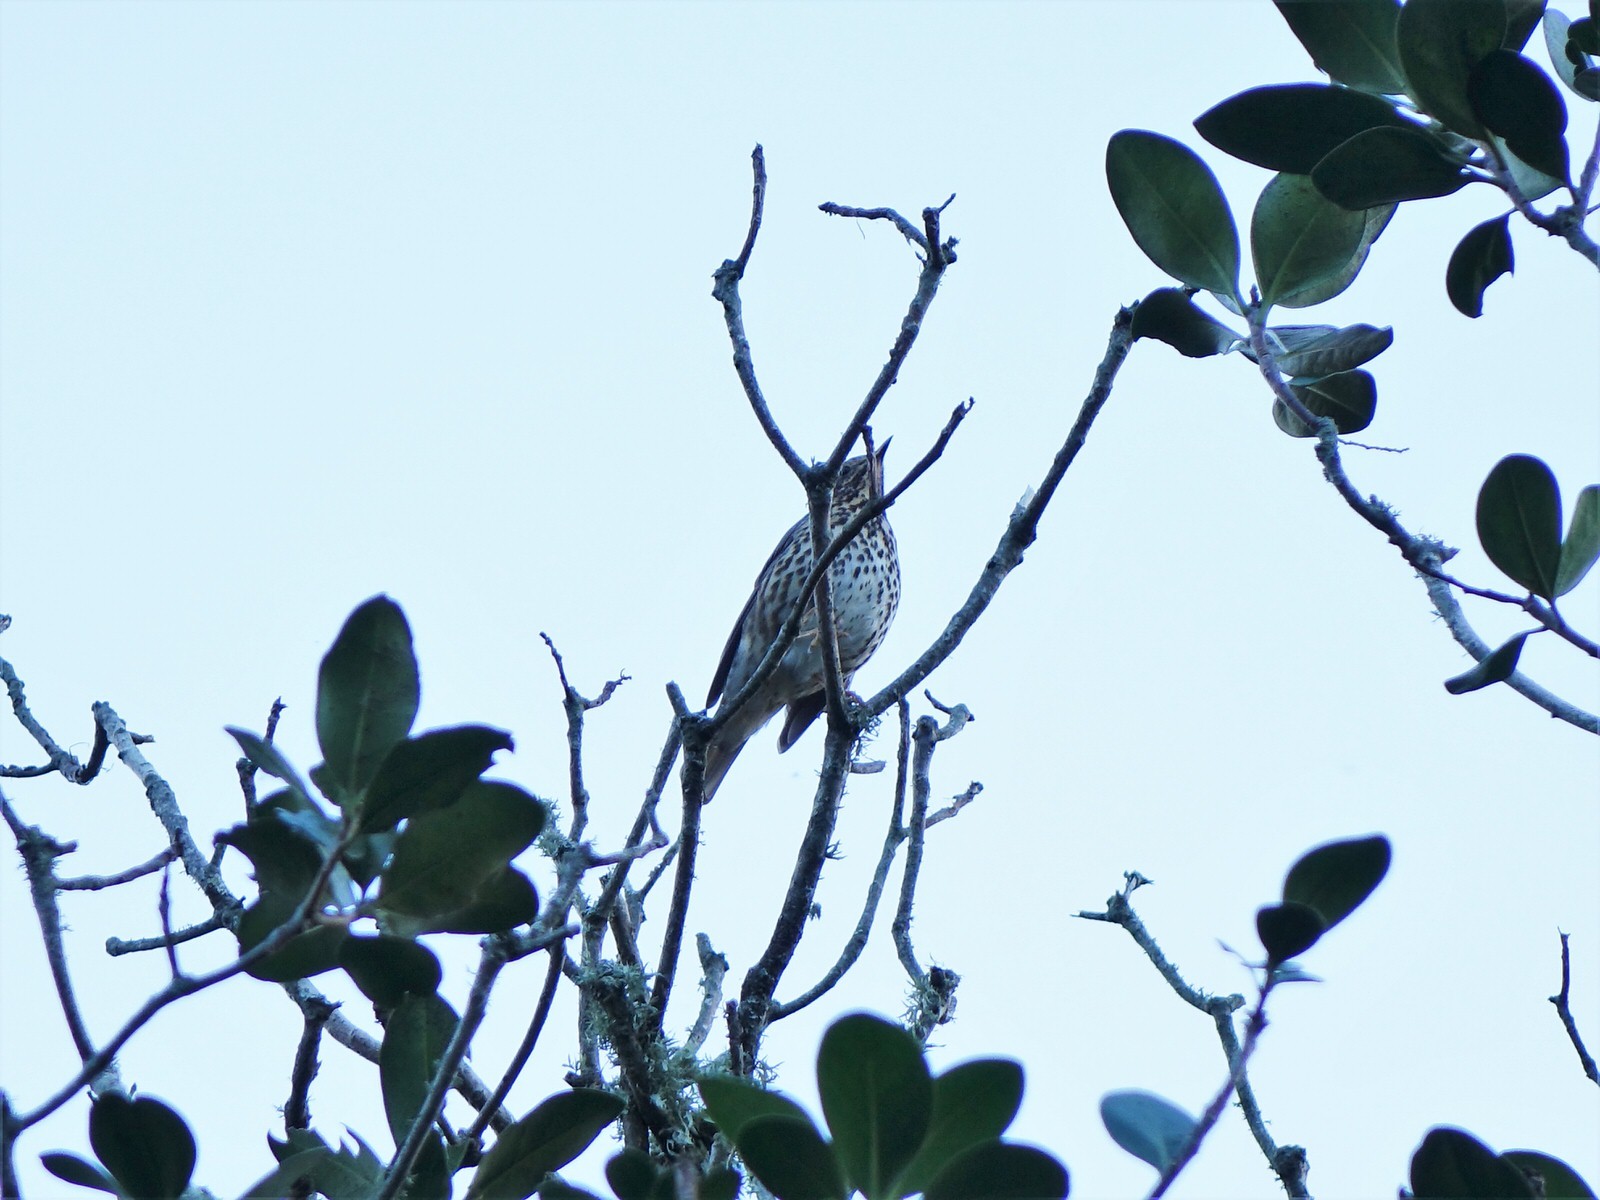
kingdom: Animalia
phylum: Chordata
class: Aves
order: Passeriformes
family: Turdidae
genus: Turdus
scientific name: Turdus philomelos
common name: Song thrush
